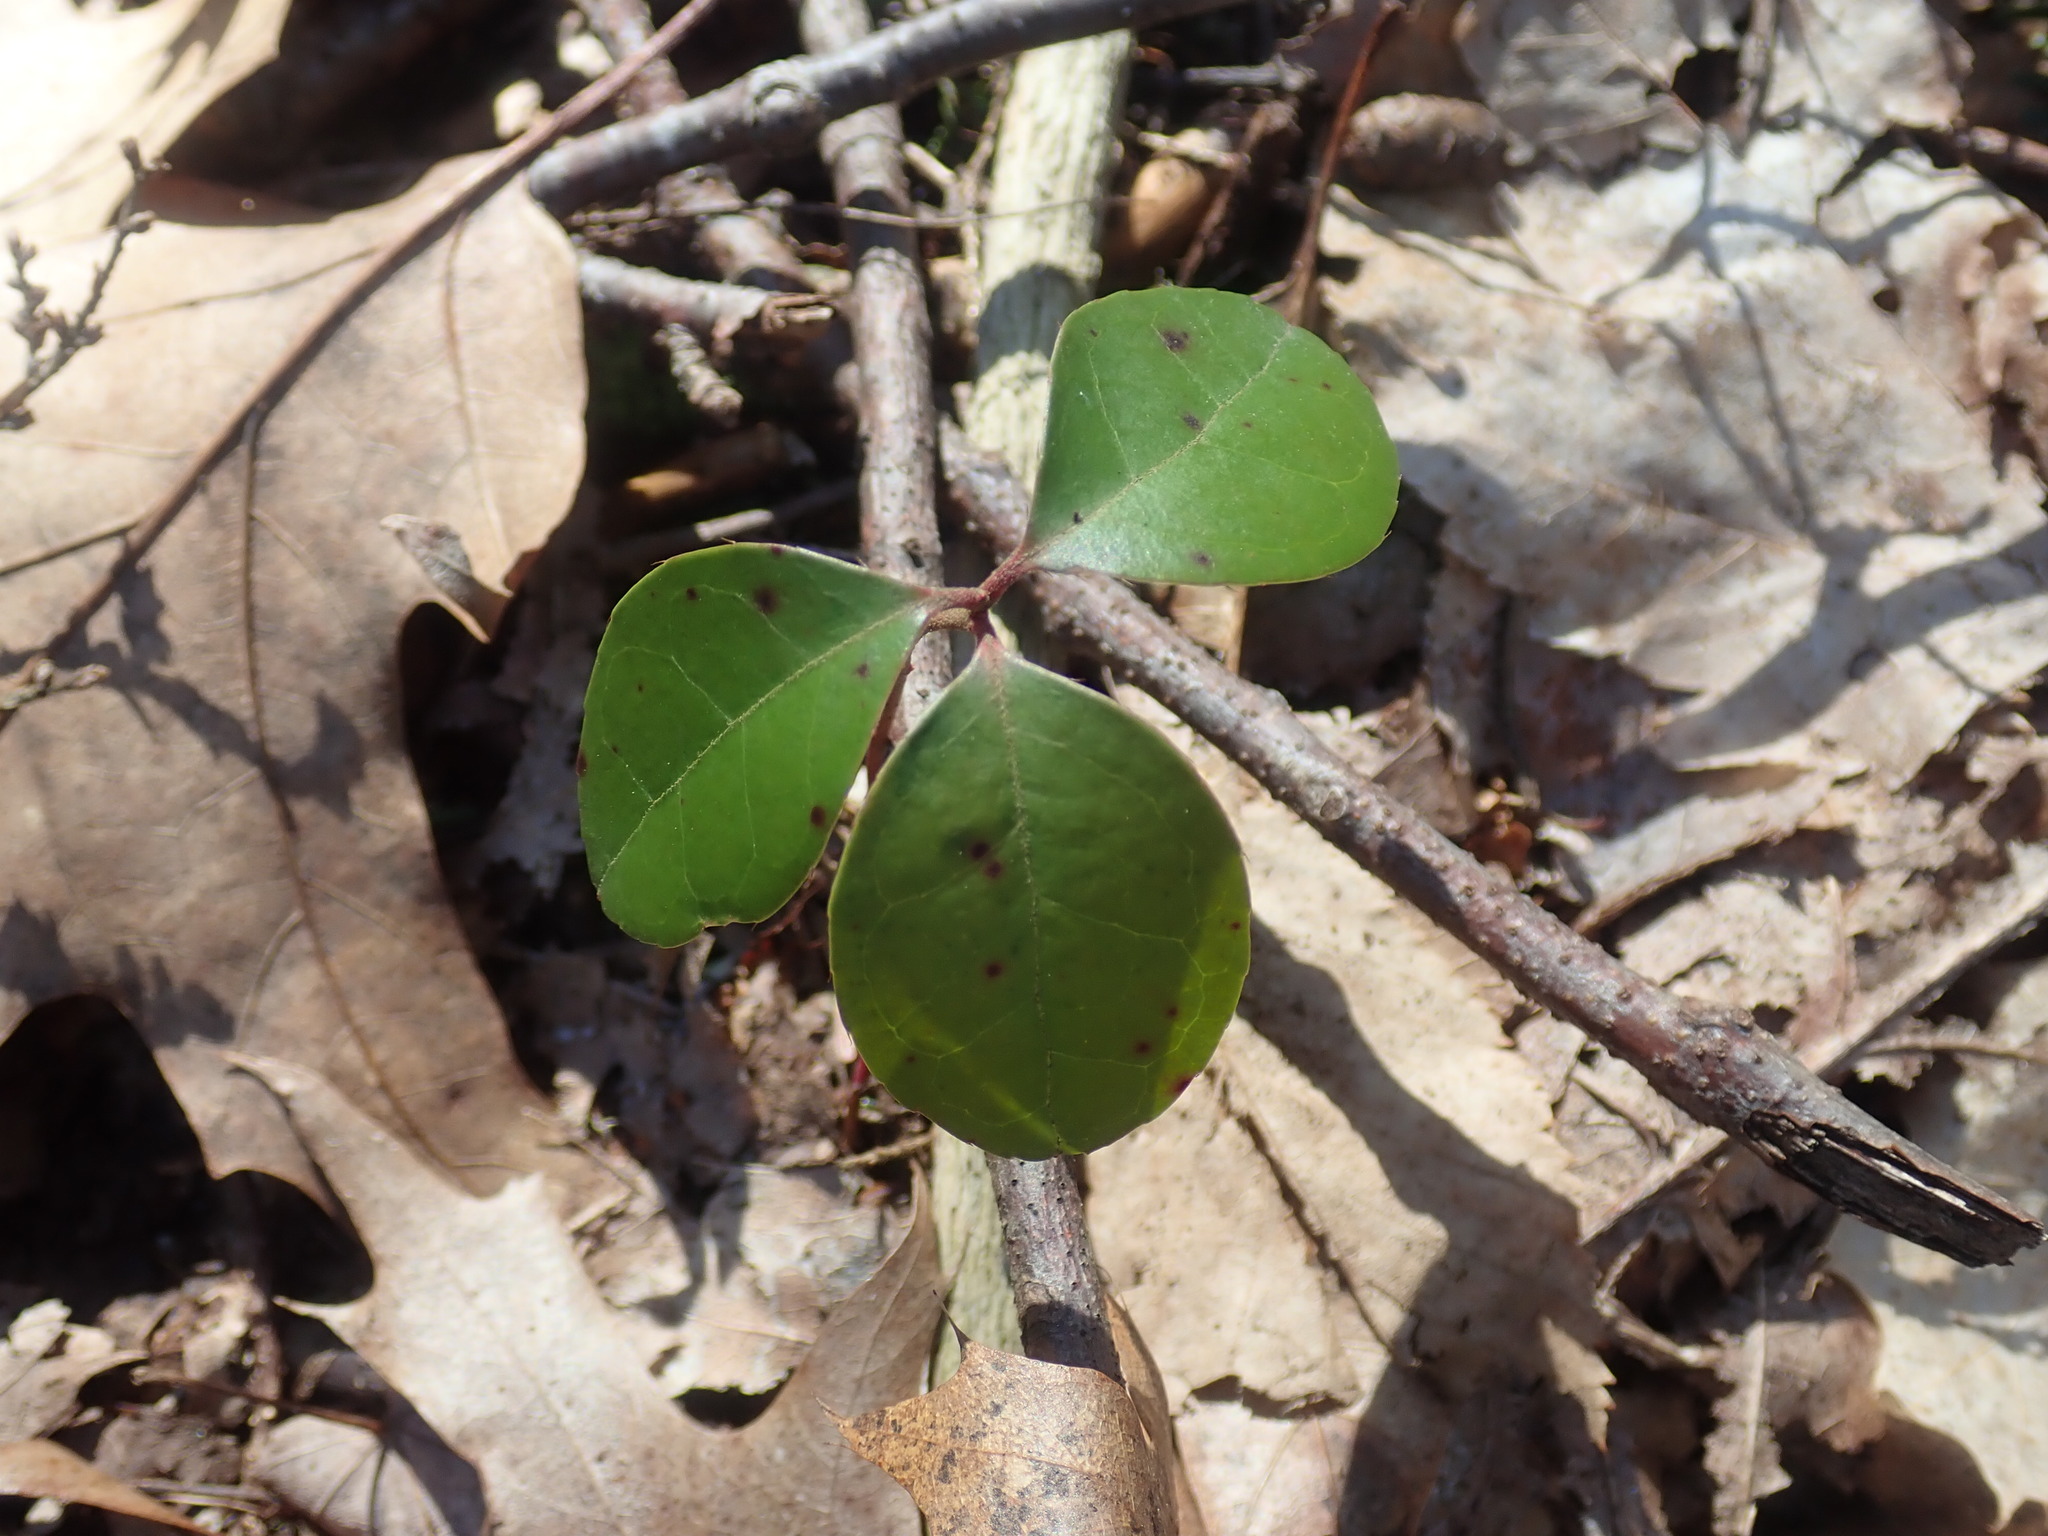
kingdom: Plantae
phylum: Tracheophyta
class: Magnoliopsida
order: Ericales
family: Ericaceae
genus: Gaultheria
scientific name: Gaultheria procumbens
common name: Checkerberry
